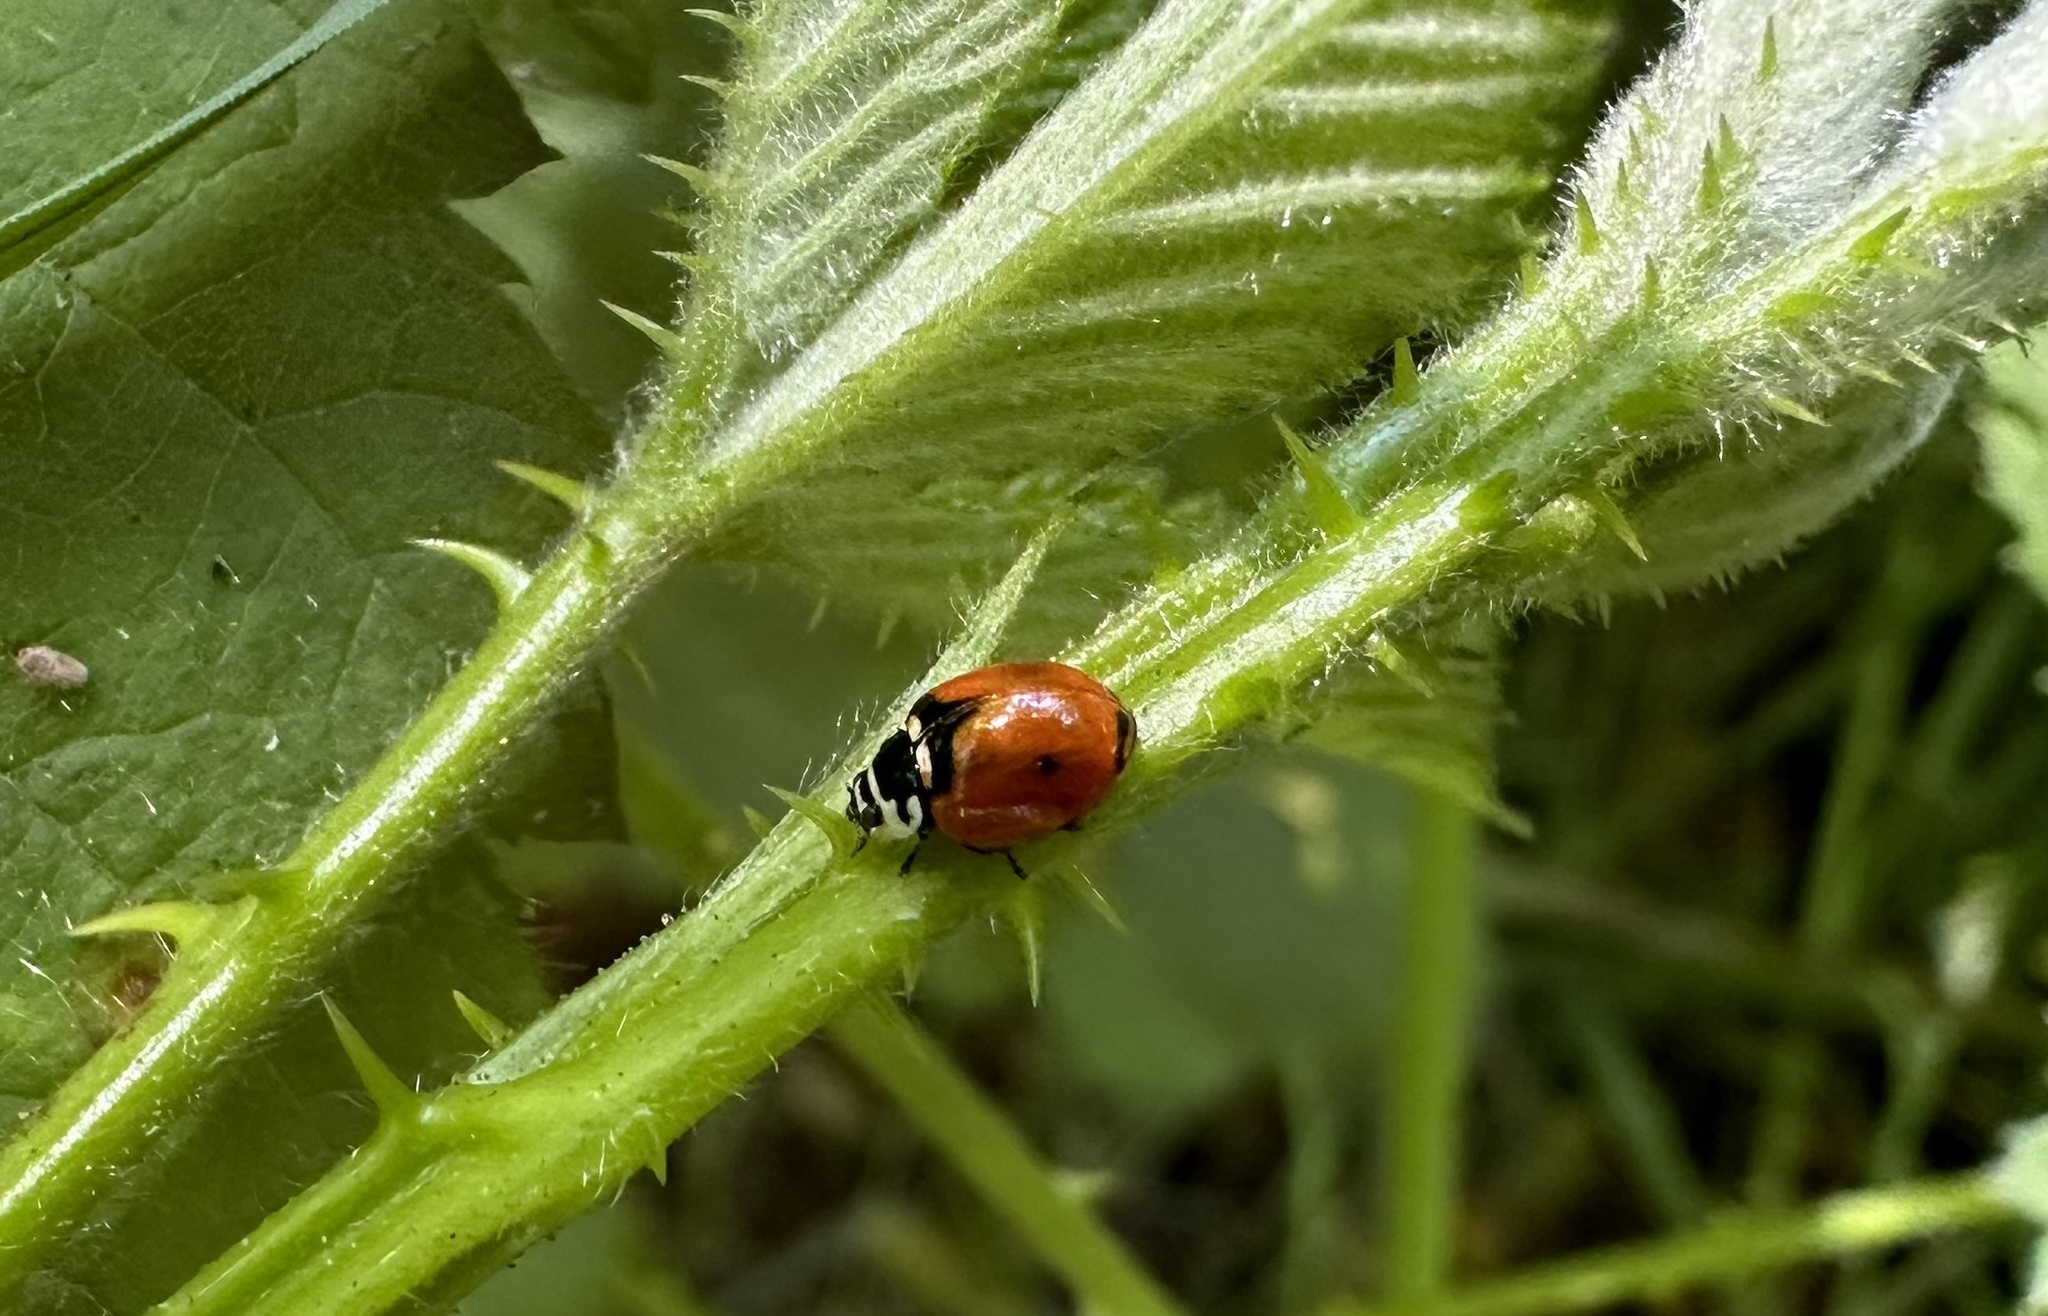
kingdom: Animalia
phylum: Arthropoda
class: Insecta
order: Coleoptera
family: Coccinellidae
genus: Adalia
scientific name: Adalia deficiens
